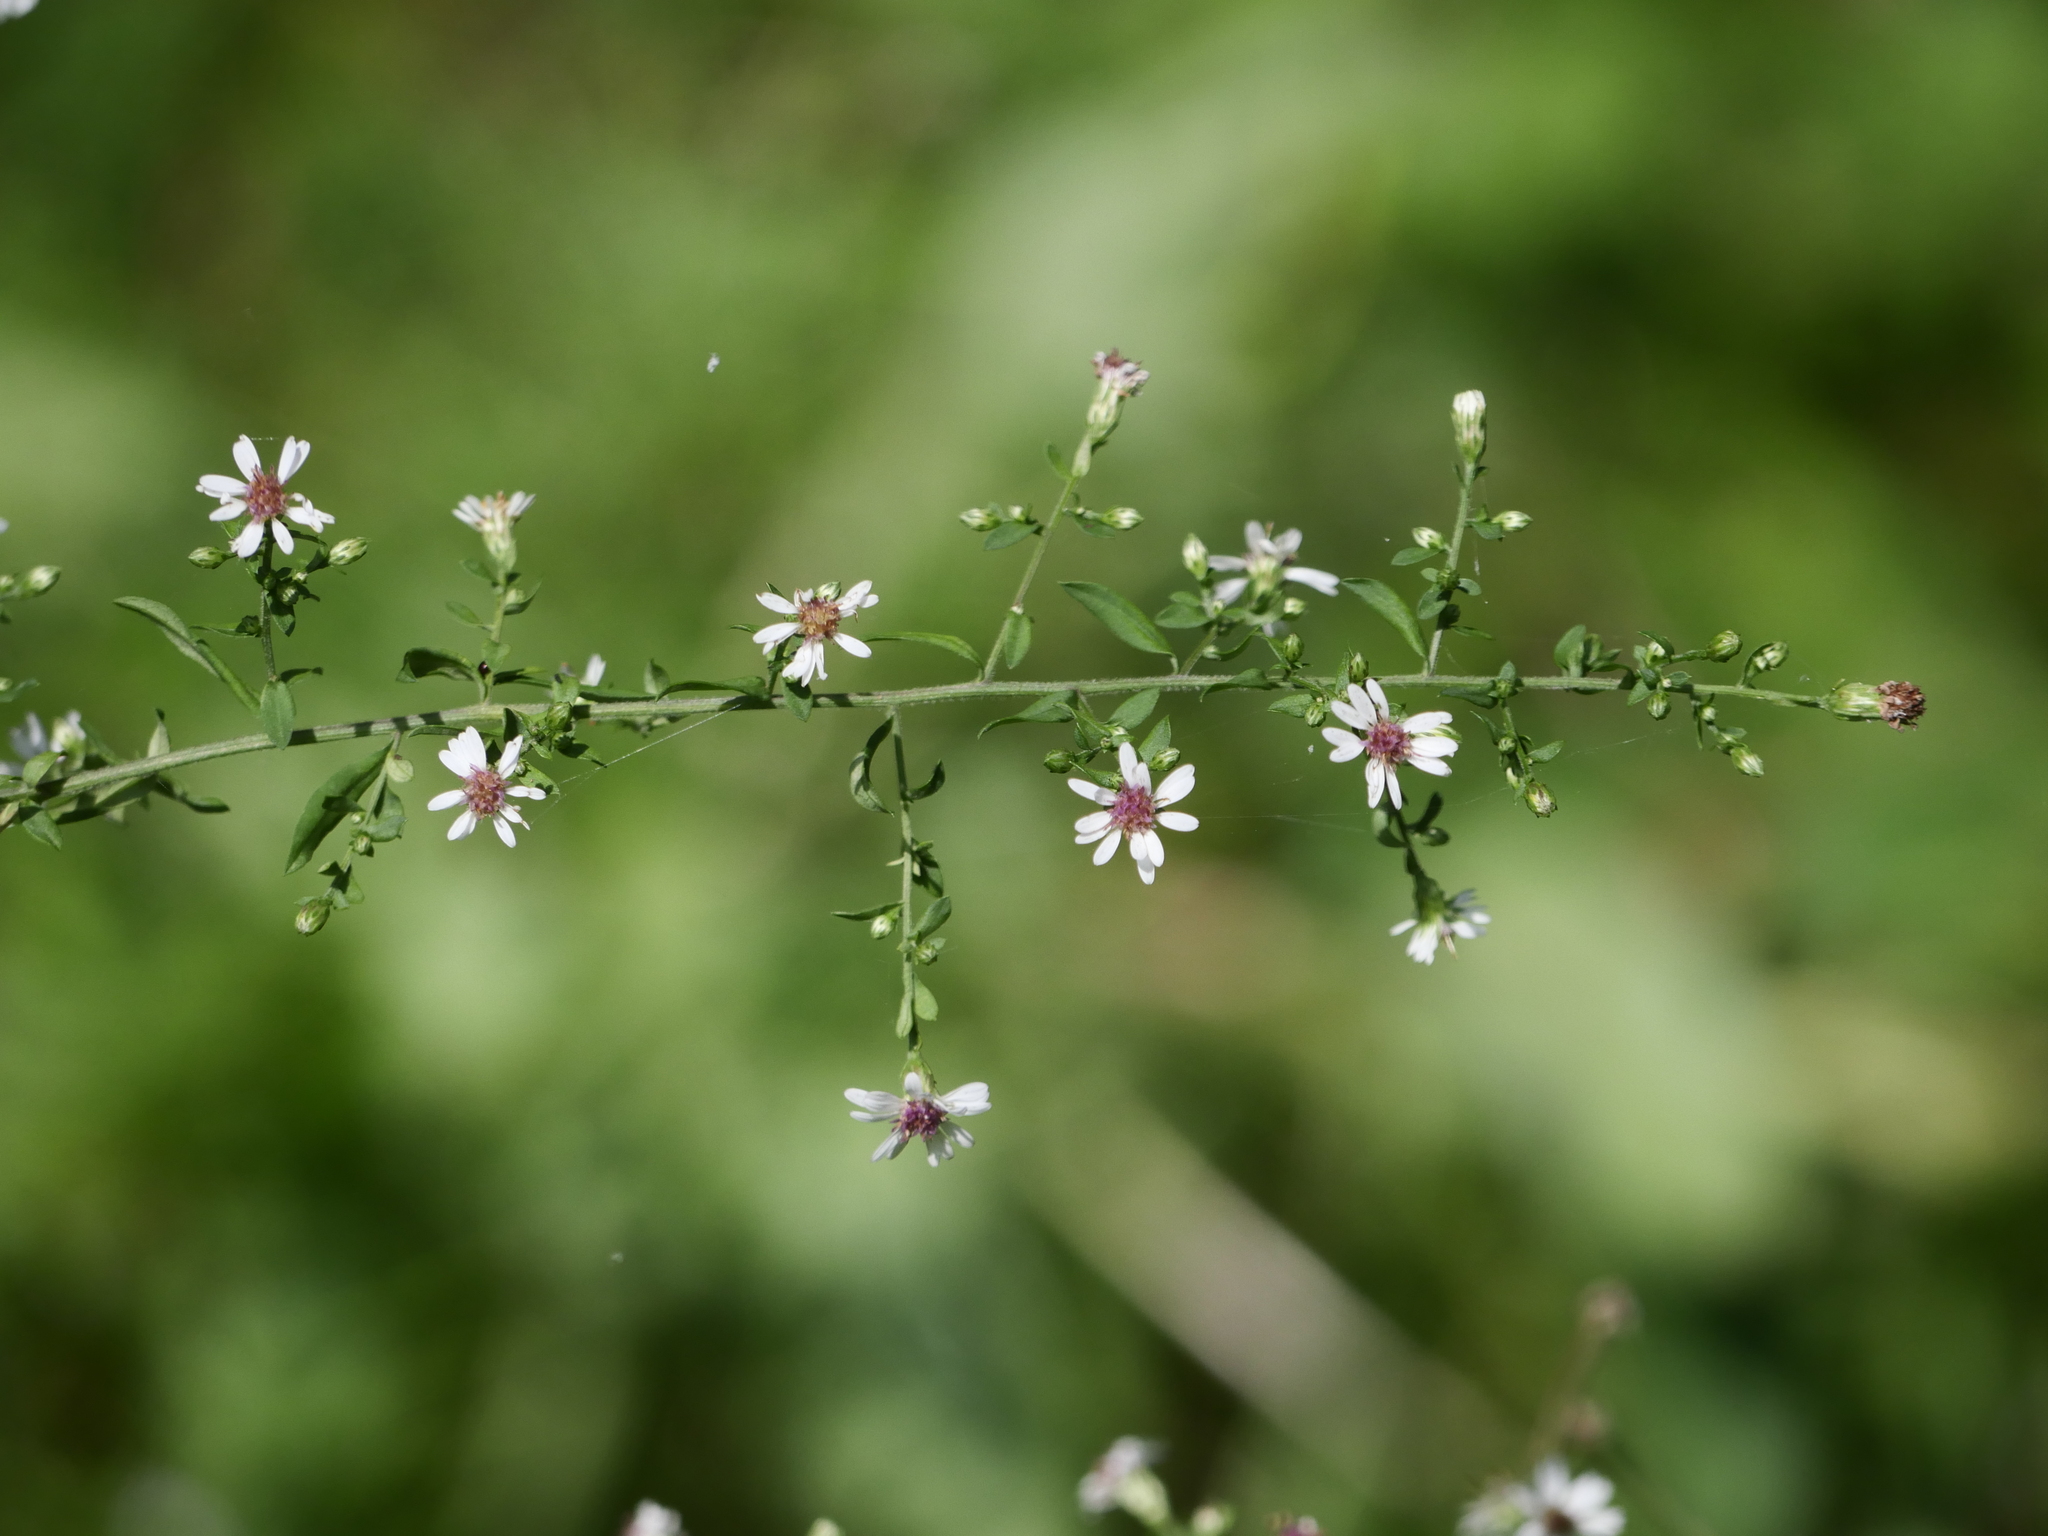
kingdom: Plantae
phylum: Tracheophyta
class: Magnoliopsida
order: Asterales
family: Asteraceae
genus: Symphyotrichum
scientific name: Symphyotrichum lateriflorum
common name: Calico aster
